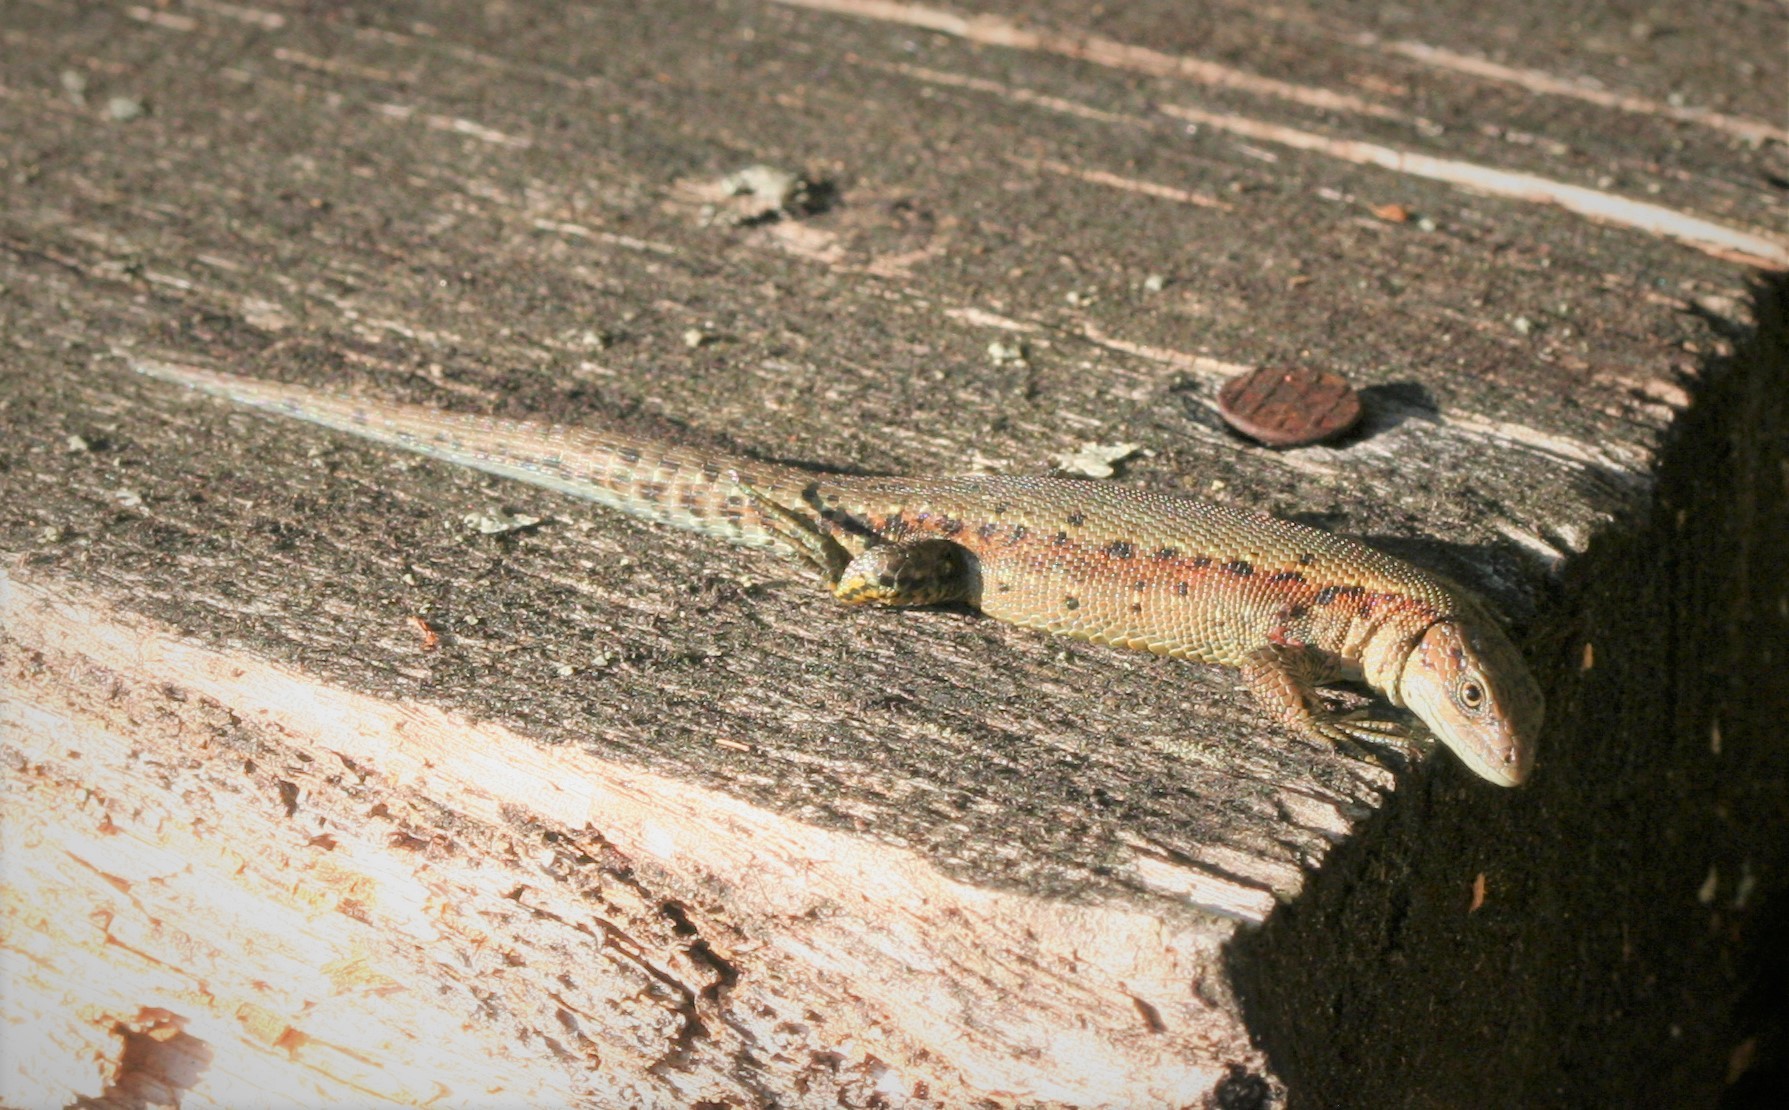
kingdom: Animalia
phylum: Chordata
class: Squamata
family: Lacertidae
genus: Zootoca
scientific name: Zootoca vivipara
